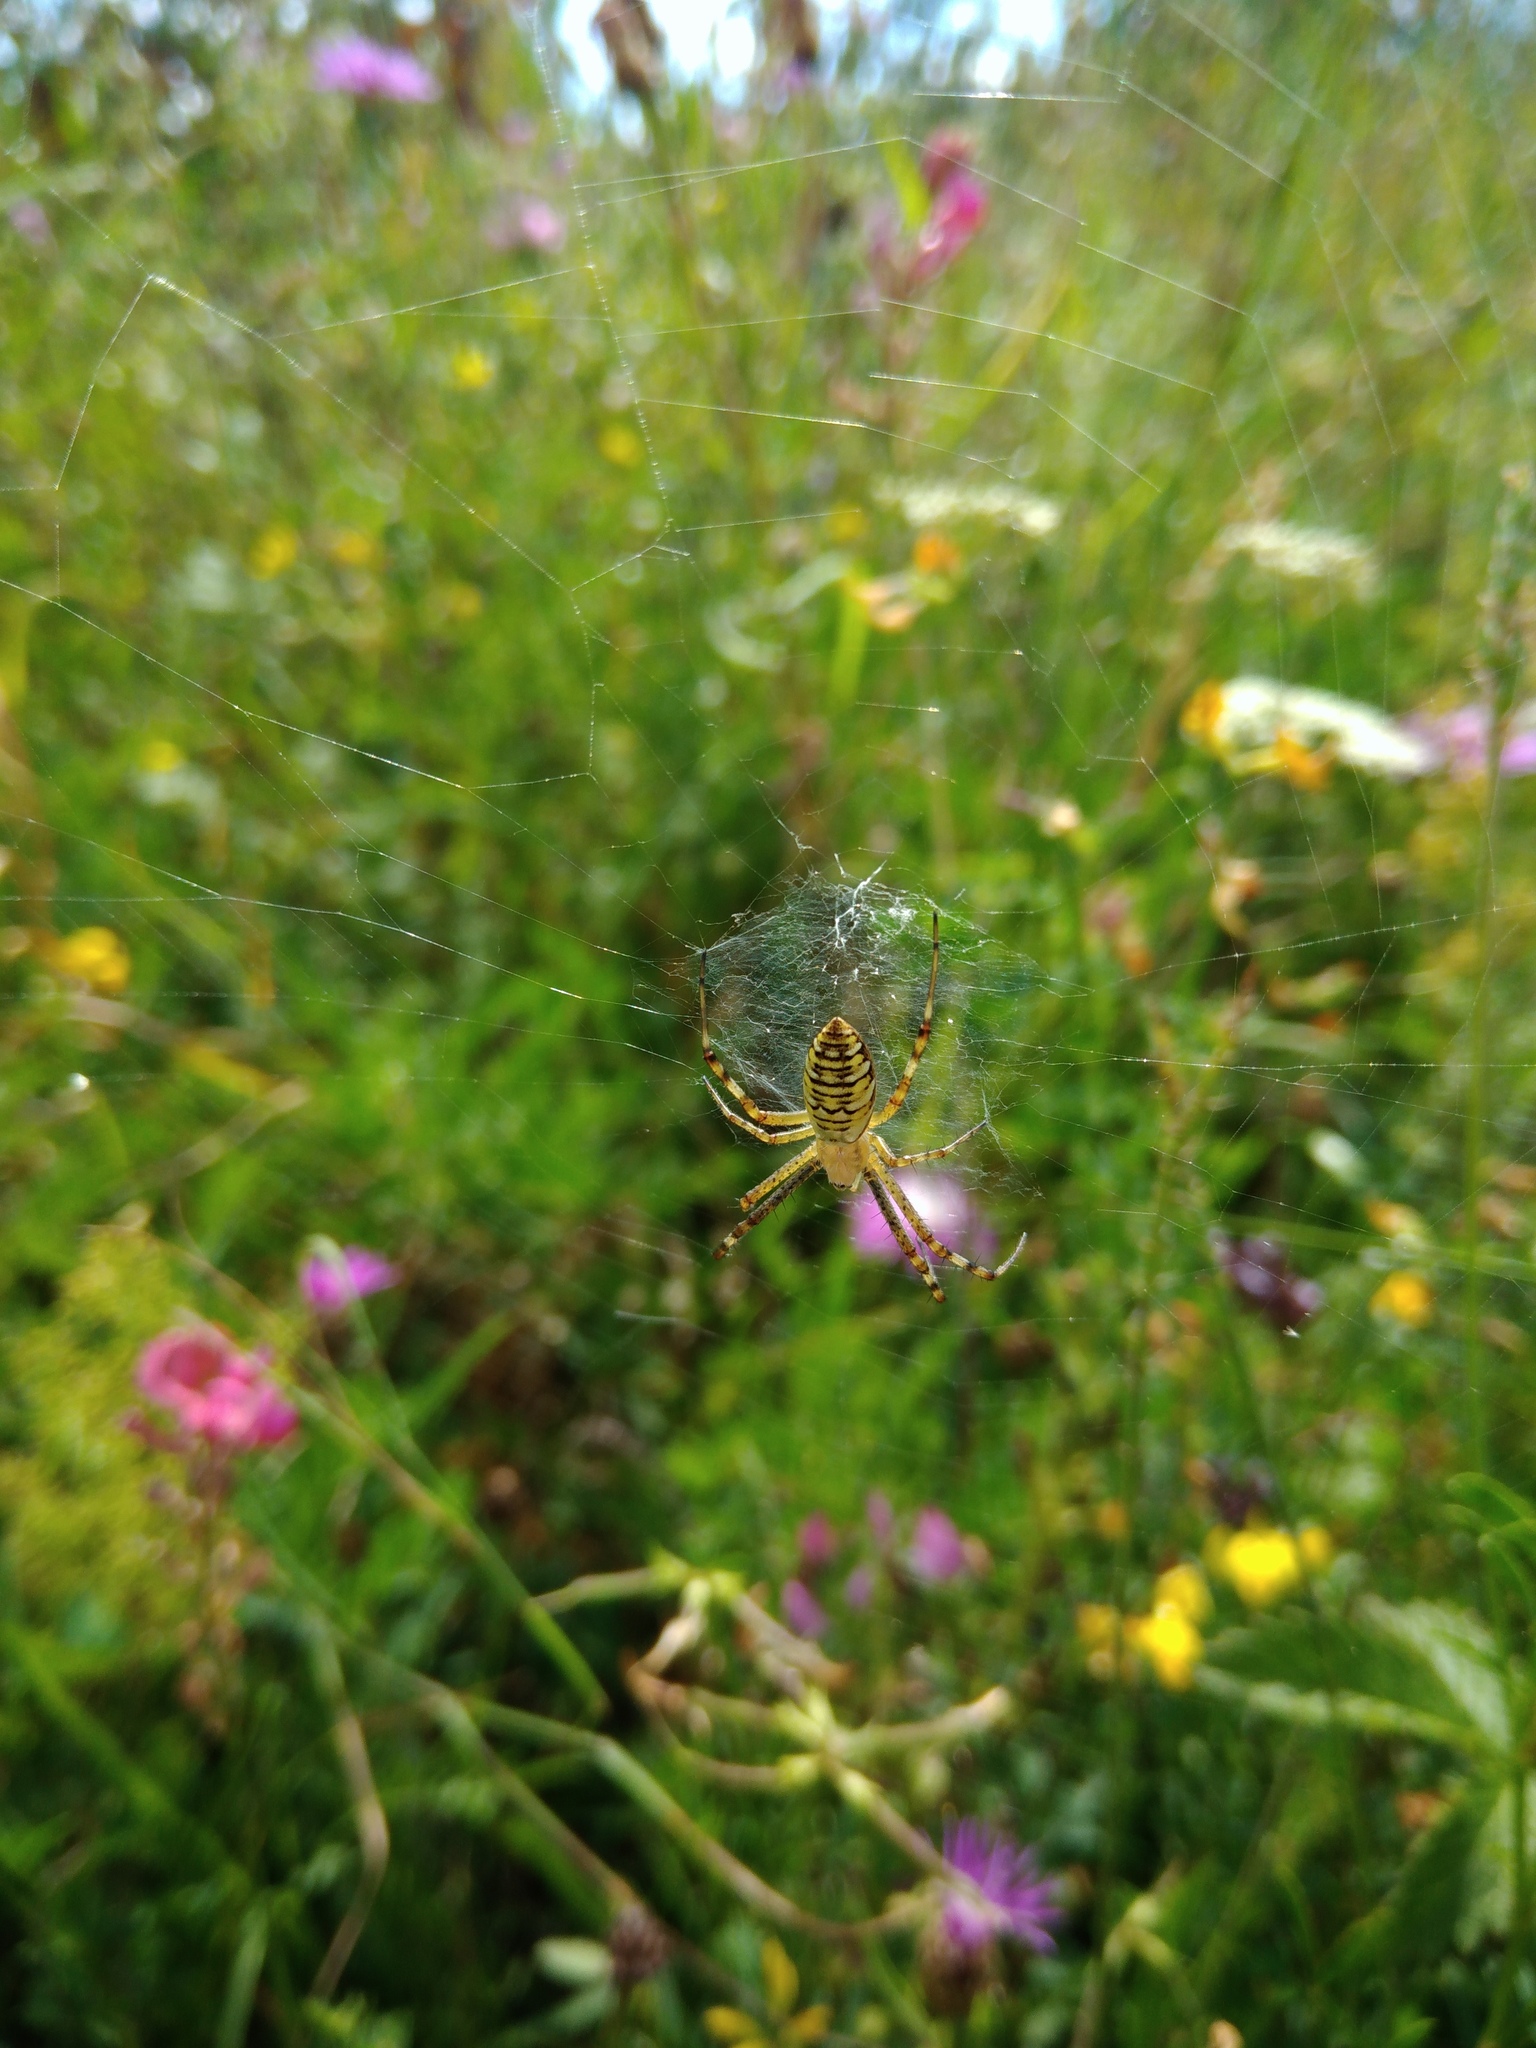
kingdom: Animalia
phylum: Arthropoda
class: Arachnida
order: Araneae
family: Araneidae
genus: Argiope
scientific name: Argiope bruennichi
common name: Wasp spider
